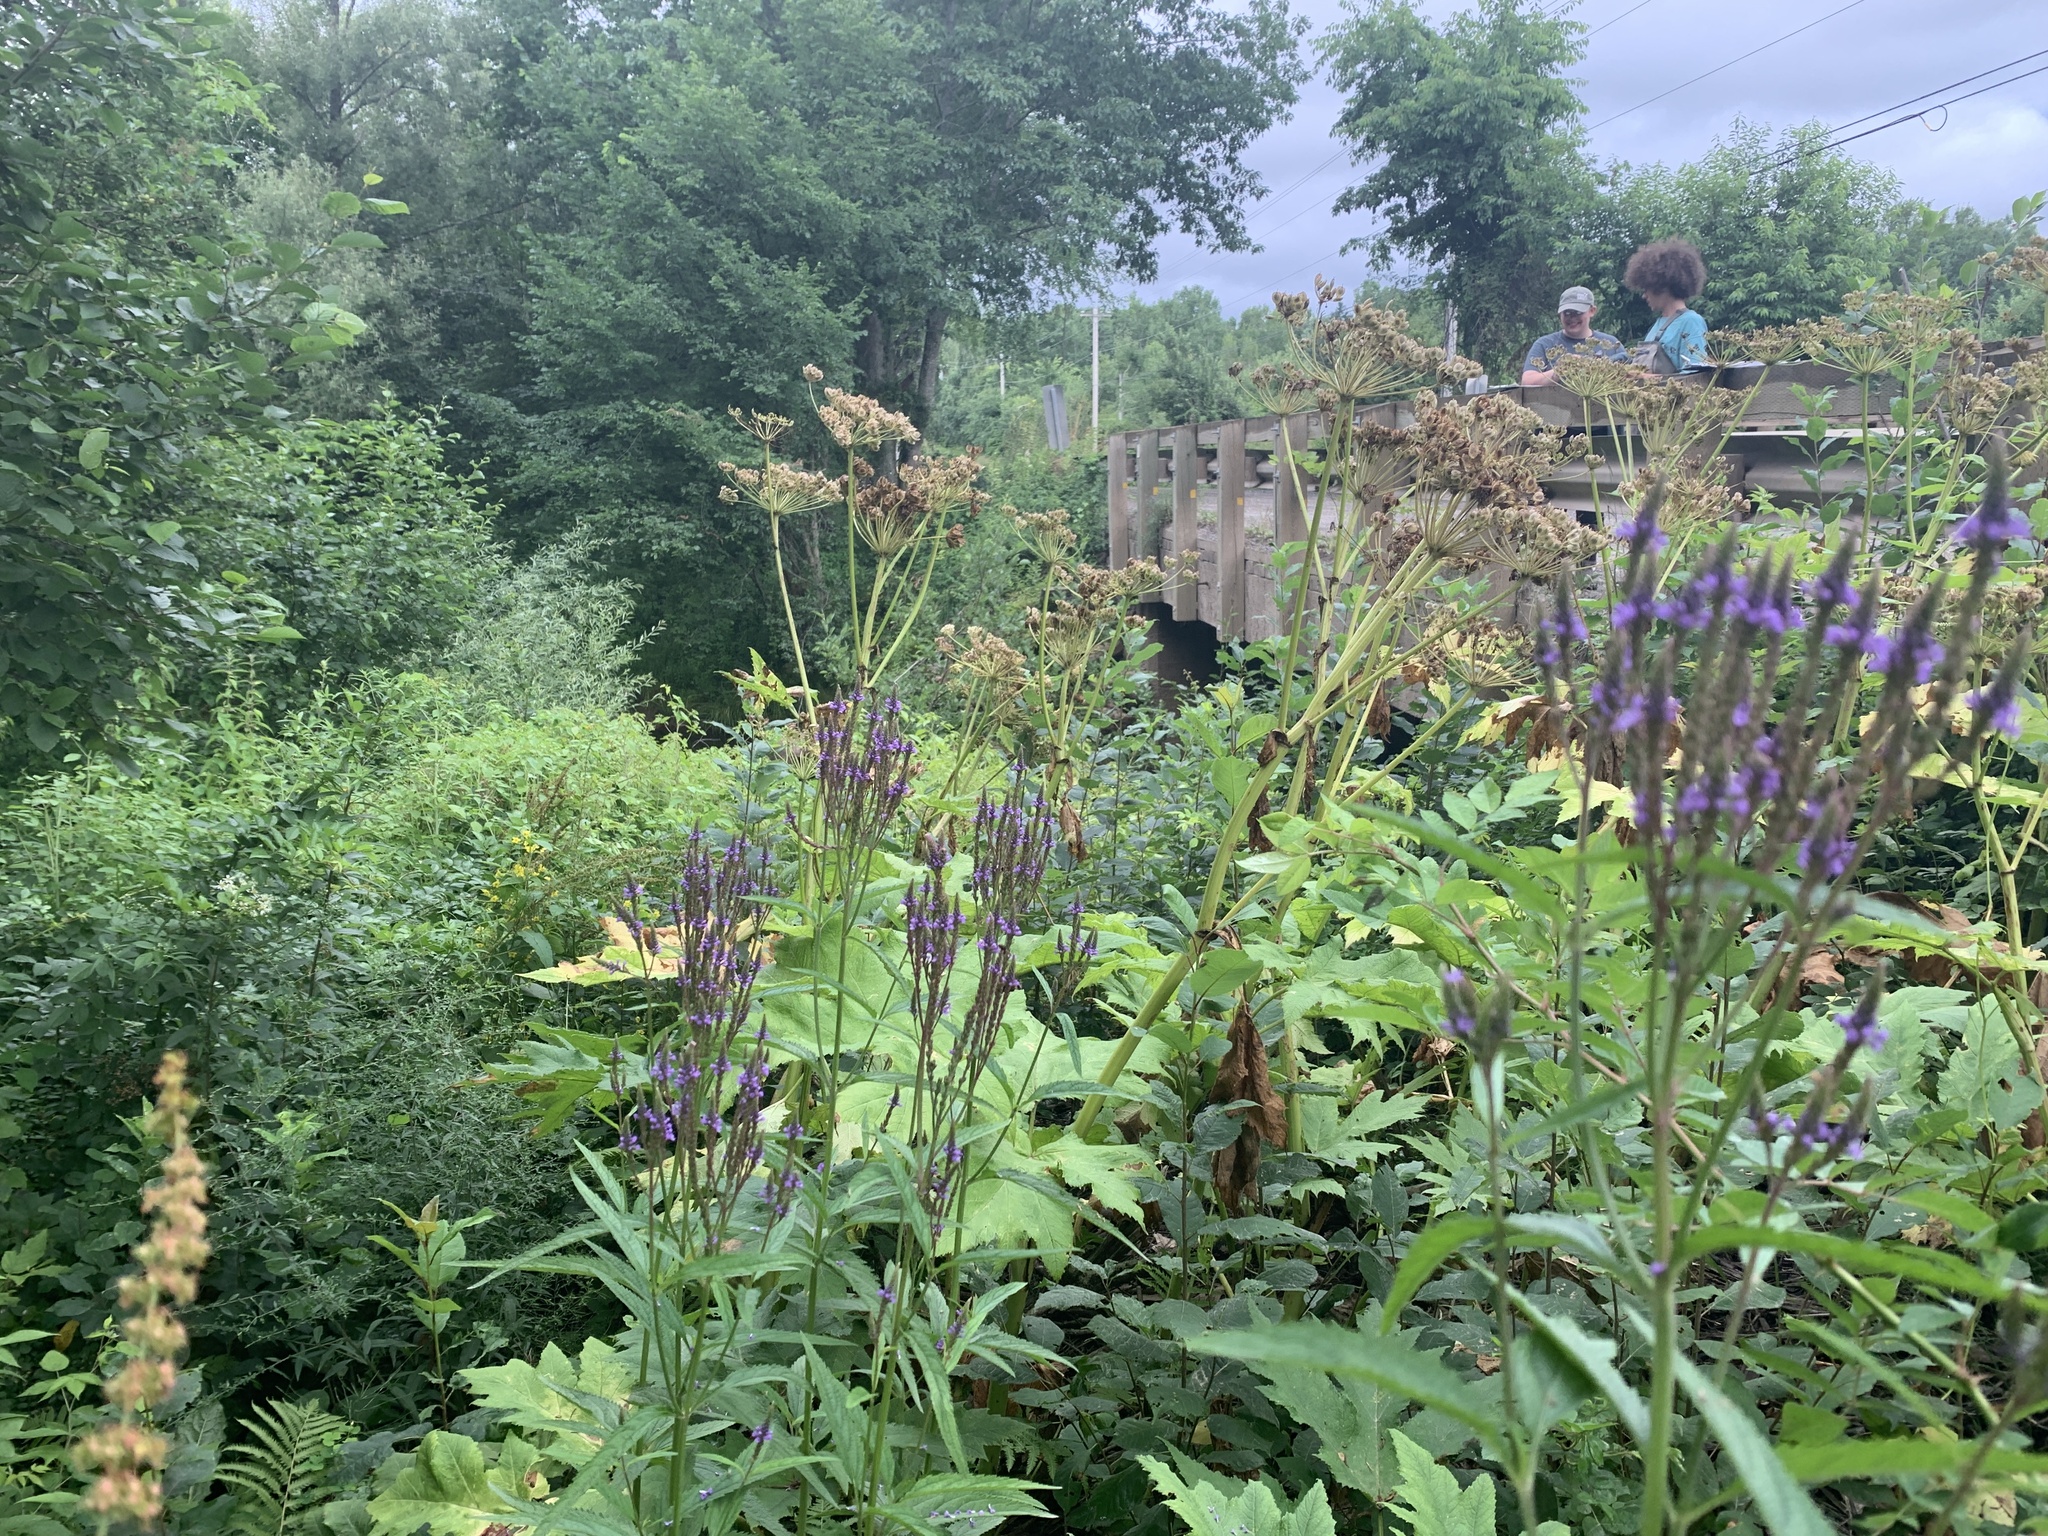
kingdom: Plantae
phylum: Tracheophyta
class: Magnoliopsida
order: Lamiales
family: Verbenaceae
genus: Verbena
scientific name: Verbena hastata
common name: American blue vervain
